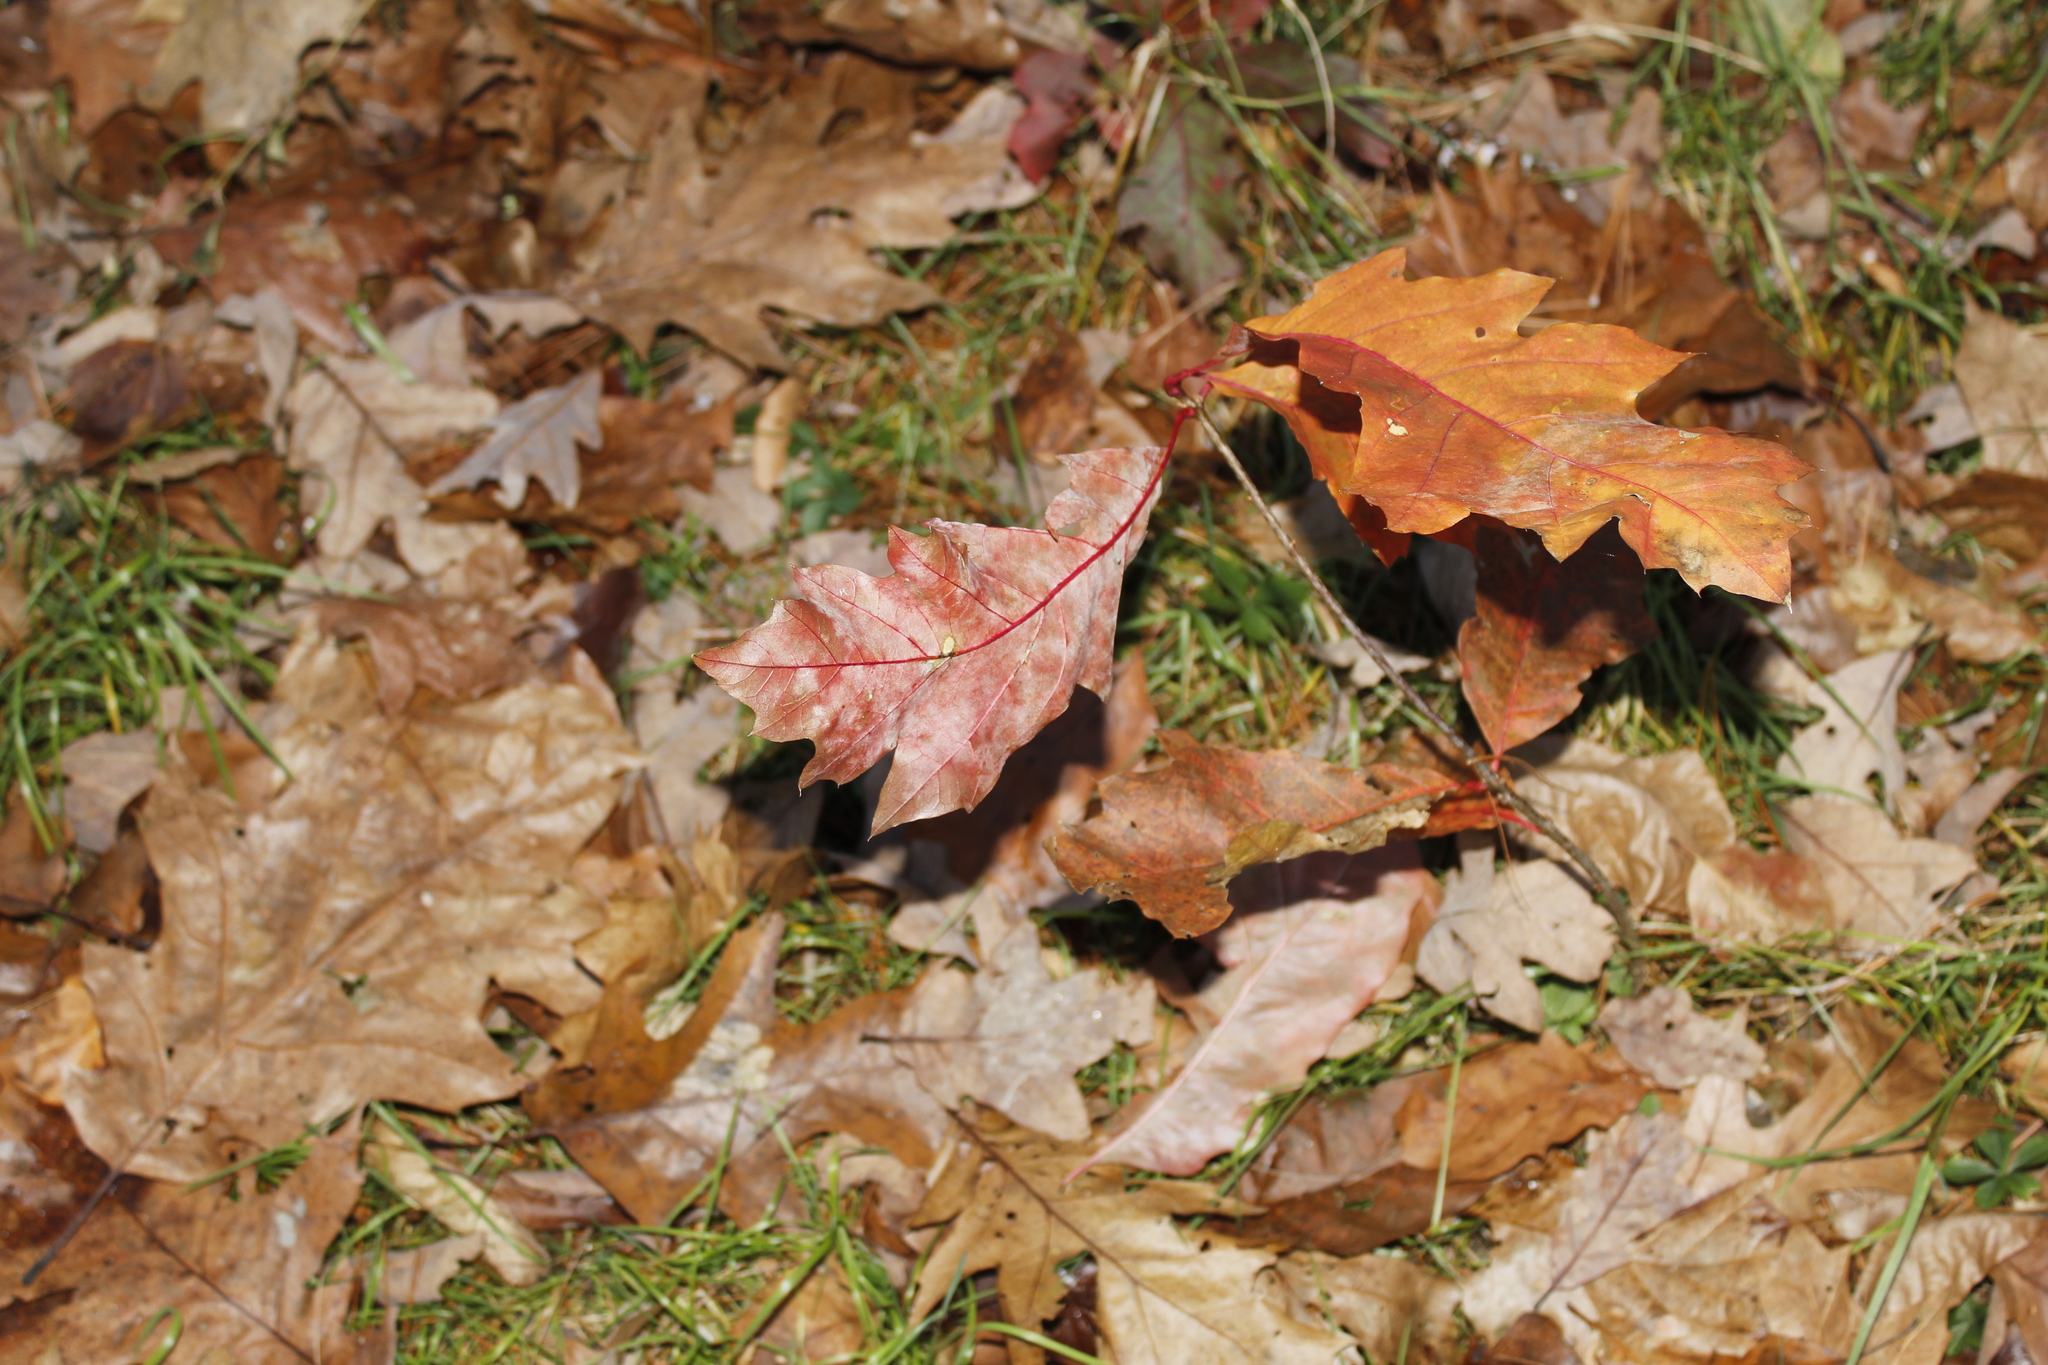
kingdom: Plantae
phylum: Tracheophyta
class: Magnoliopsida
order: Fagales
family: Fagaceae
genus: Quercus
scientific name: Quercus rubra
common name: Red oak
